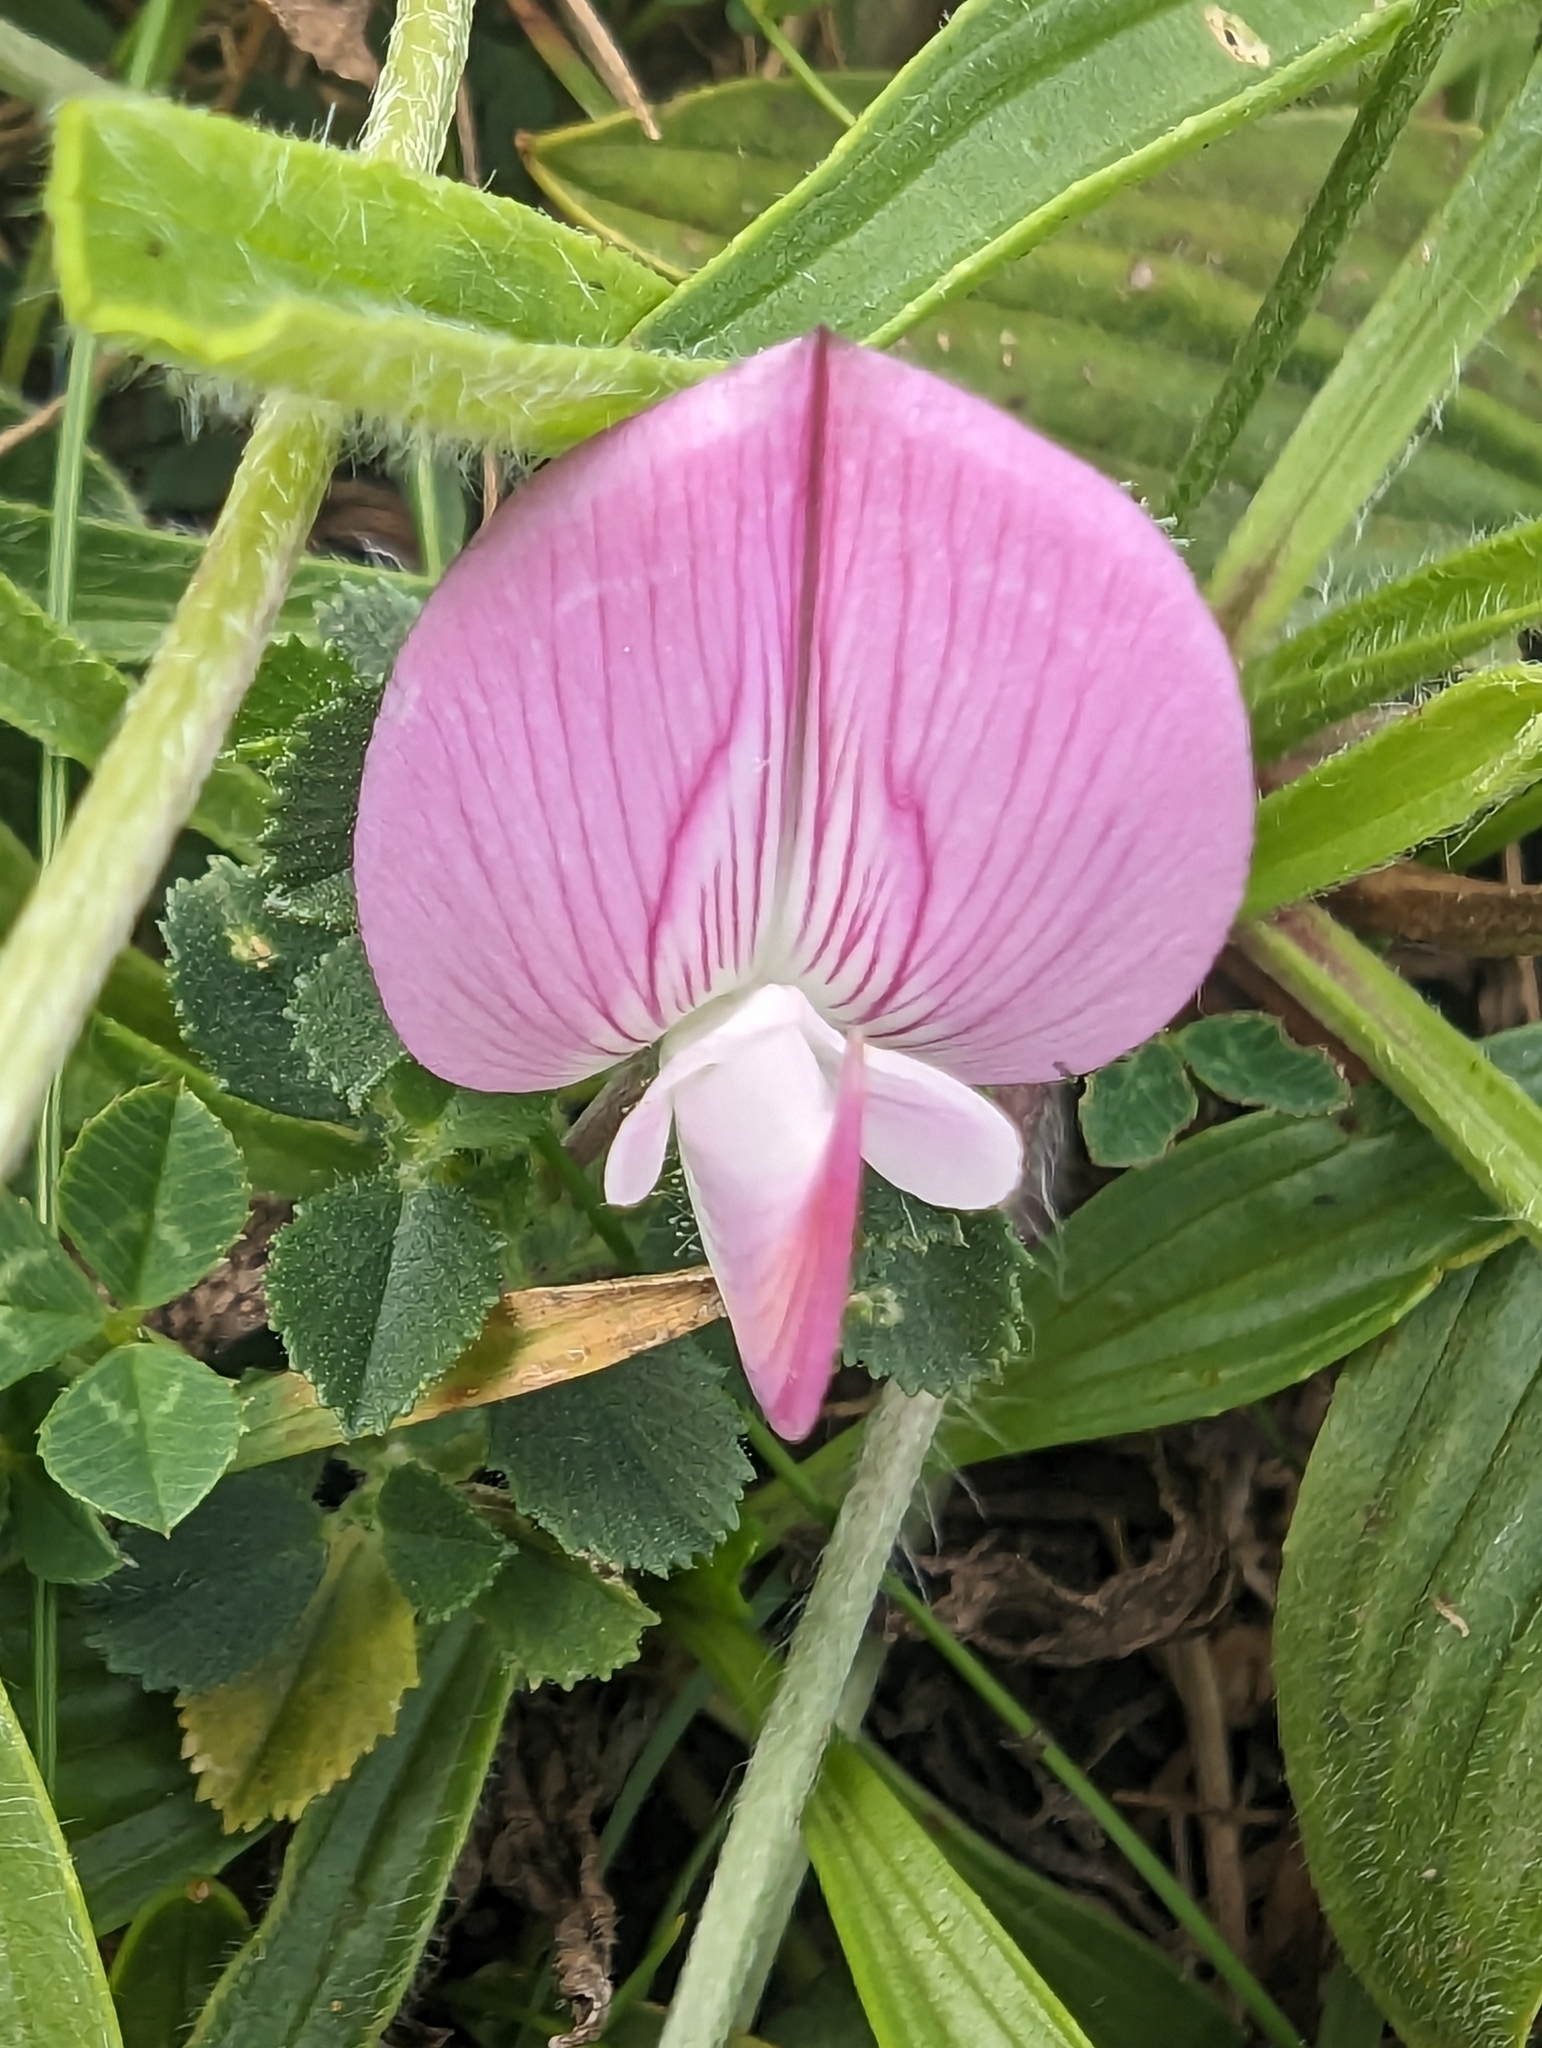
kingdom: Plantae
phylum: Tracheophyta
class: Magnoliopsida
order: Fabales
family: Fabaceae
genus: Ononis
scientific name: Ononis spinosa
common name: Spiny restharrow
